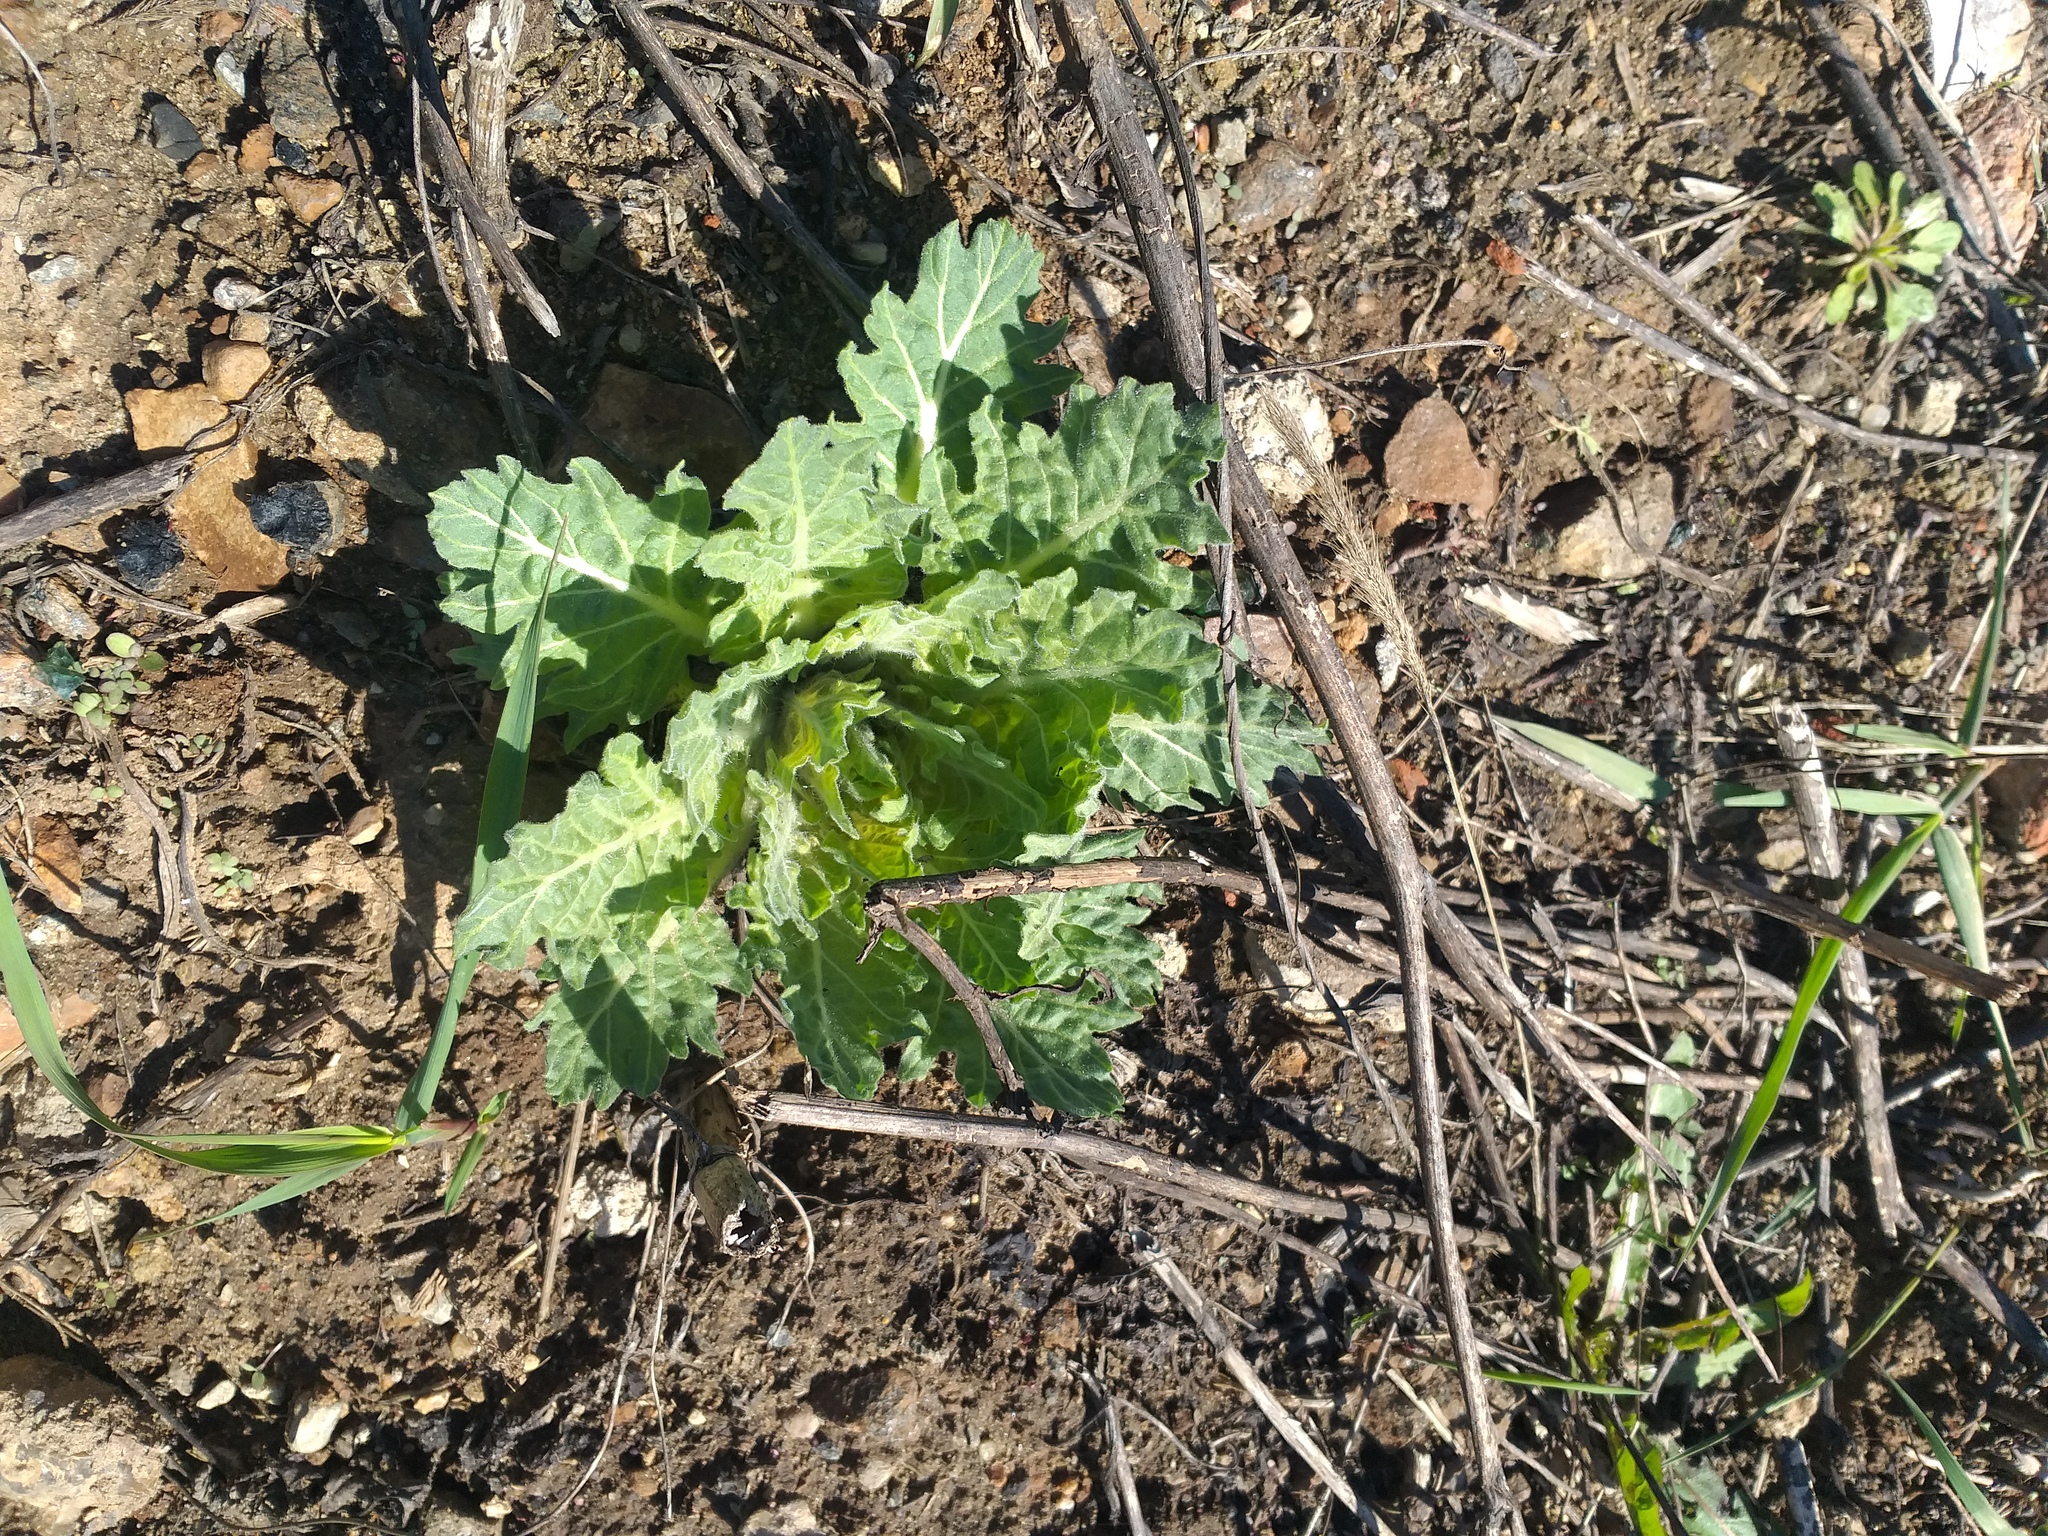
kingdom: Plantae
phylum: Tracheophyta
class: Magnoliopsida
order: Solanales
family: Solanaceae
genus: Hyoscyamus
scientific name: Hyoscyamus niger
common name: Henbane
